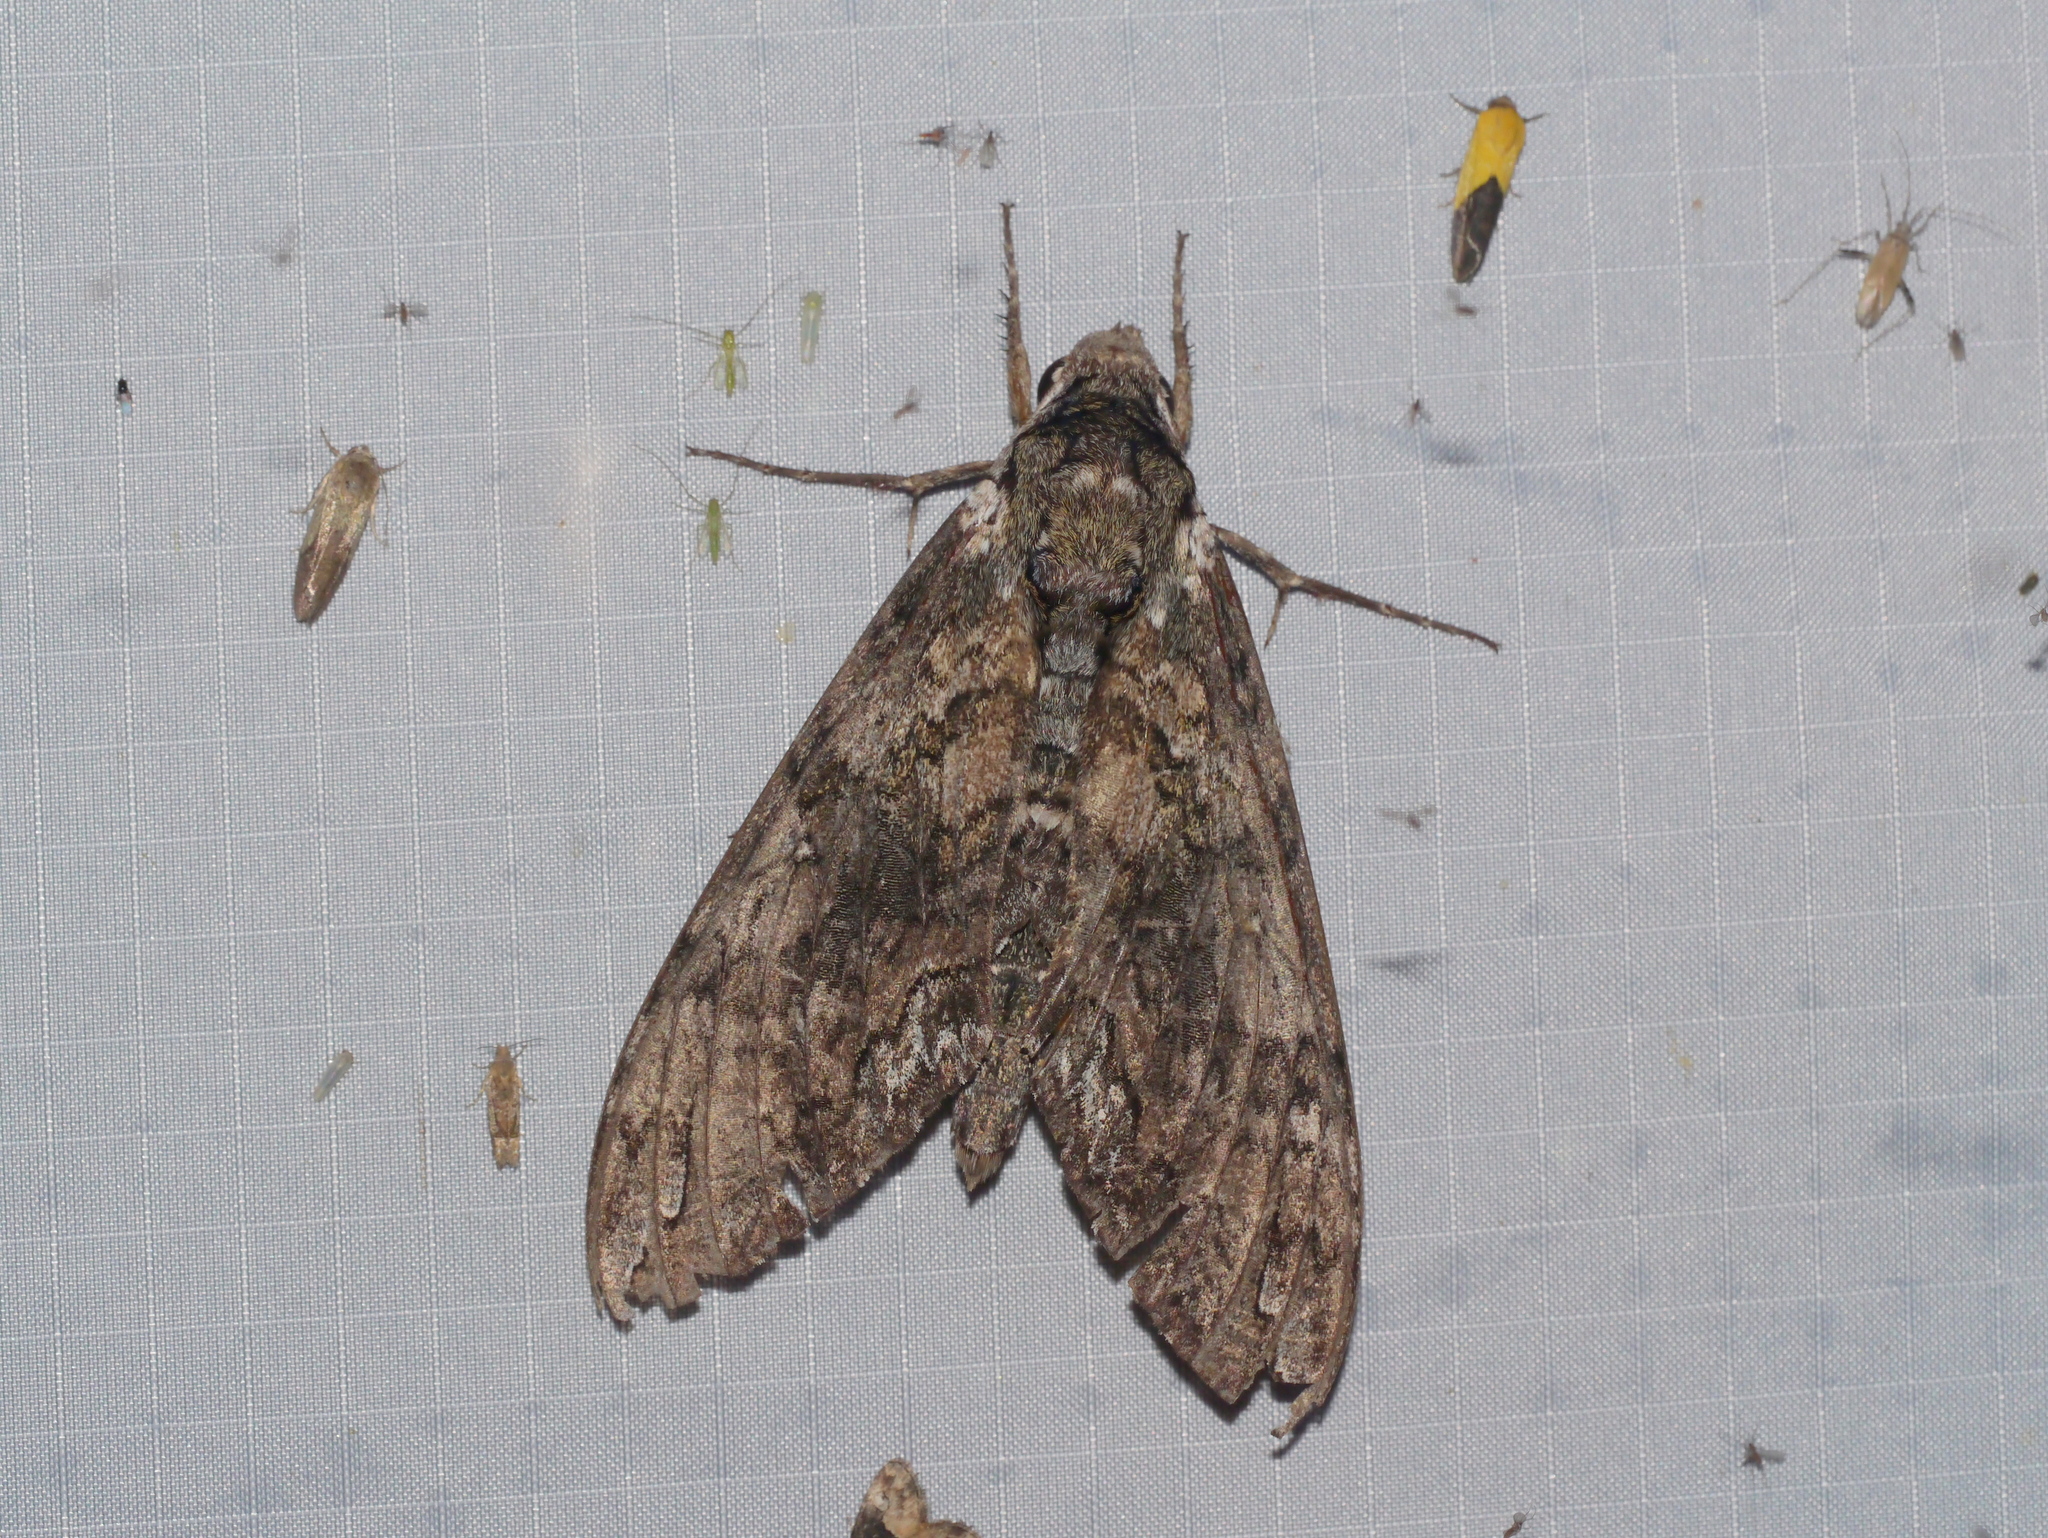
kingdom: Animalia
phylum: Arthropoda
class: Insecta
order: Lepidoptera
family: Sphingidae
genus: Manduca
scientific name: Manduca sexta
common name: Carolina sphinx
